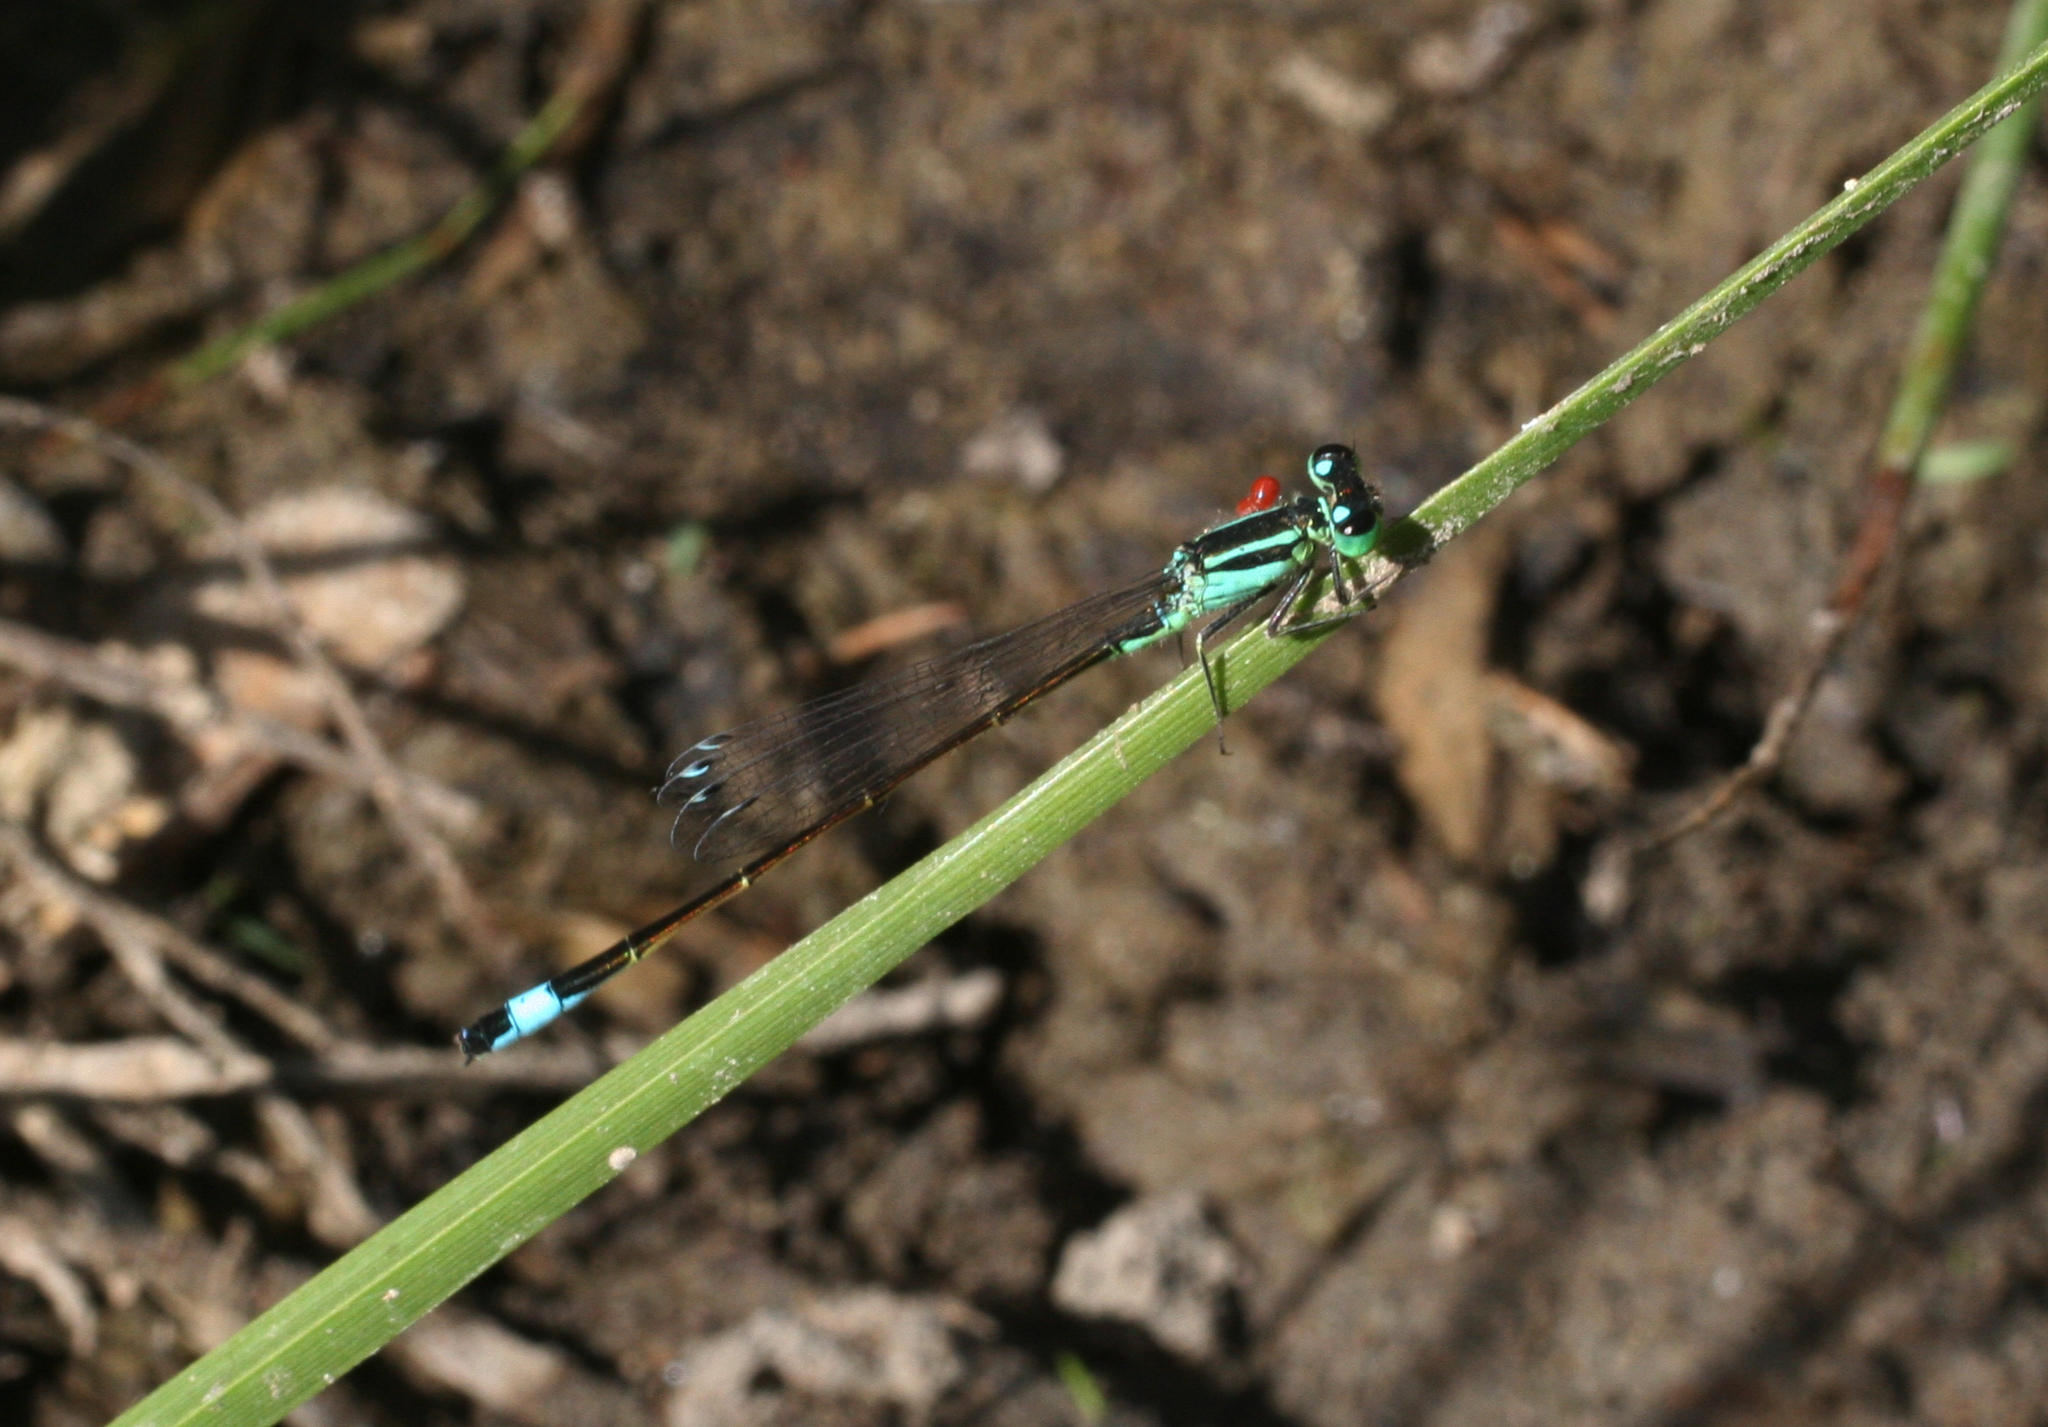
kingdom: Animalia
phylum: Arthropoda
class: Insecta
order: Odonata
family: Coenagrionidae
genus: Ischnura
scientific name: Ischnura elegans
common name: Blue-tailed damselfly
